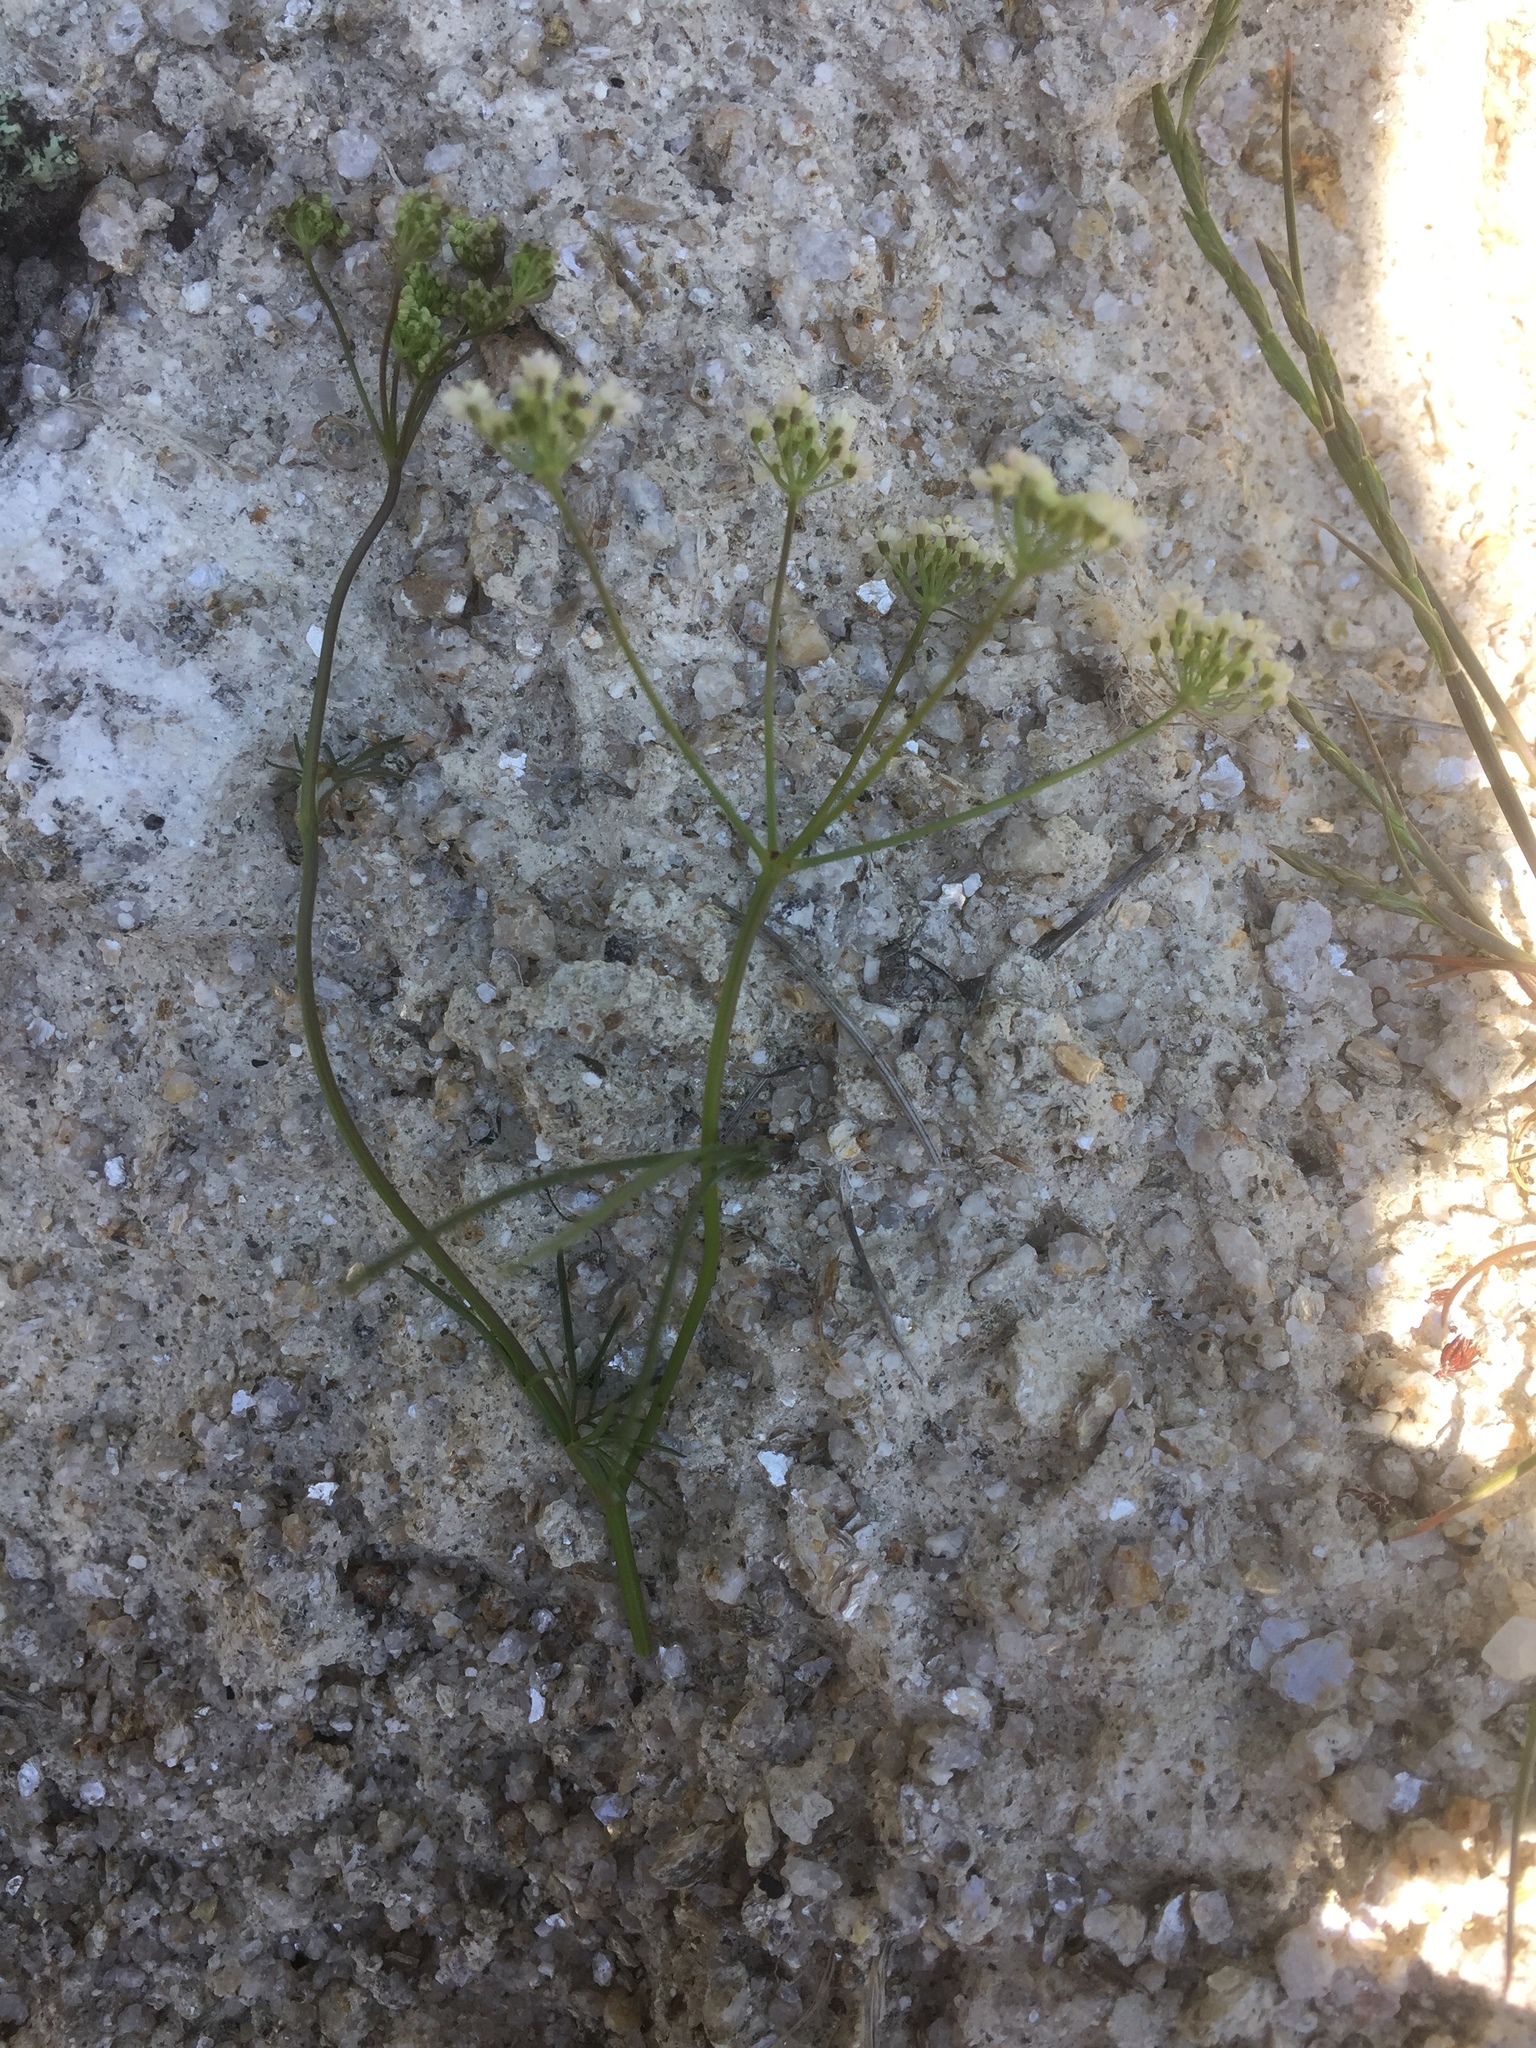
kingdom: Plantae
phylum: Tracheophyta
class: Magnoliopsida
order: Apiales
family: Apiaceae
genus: Conopodium
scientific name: Conopodium majus
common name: Pignut
